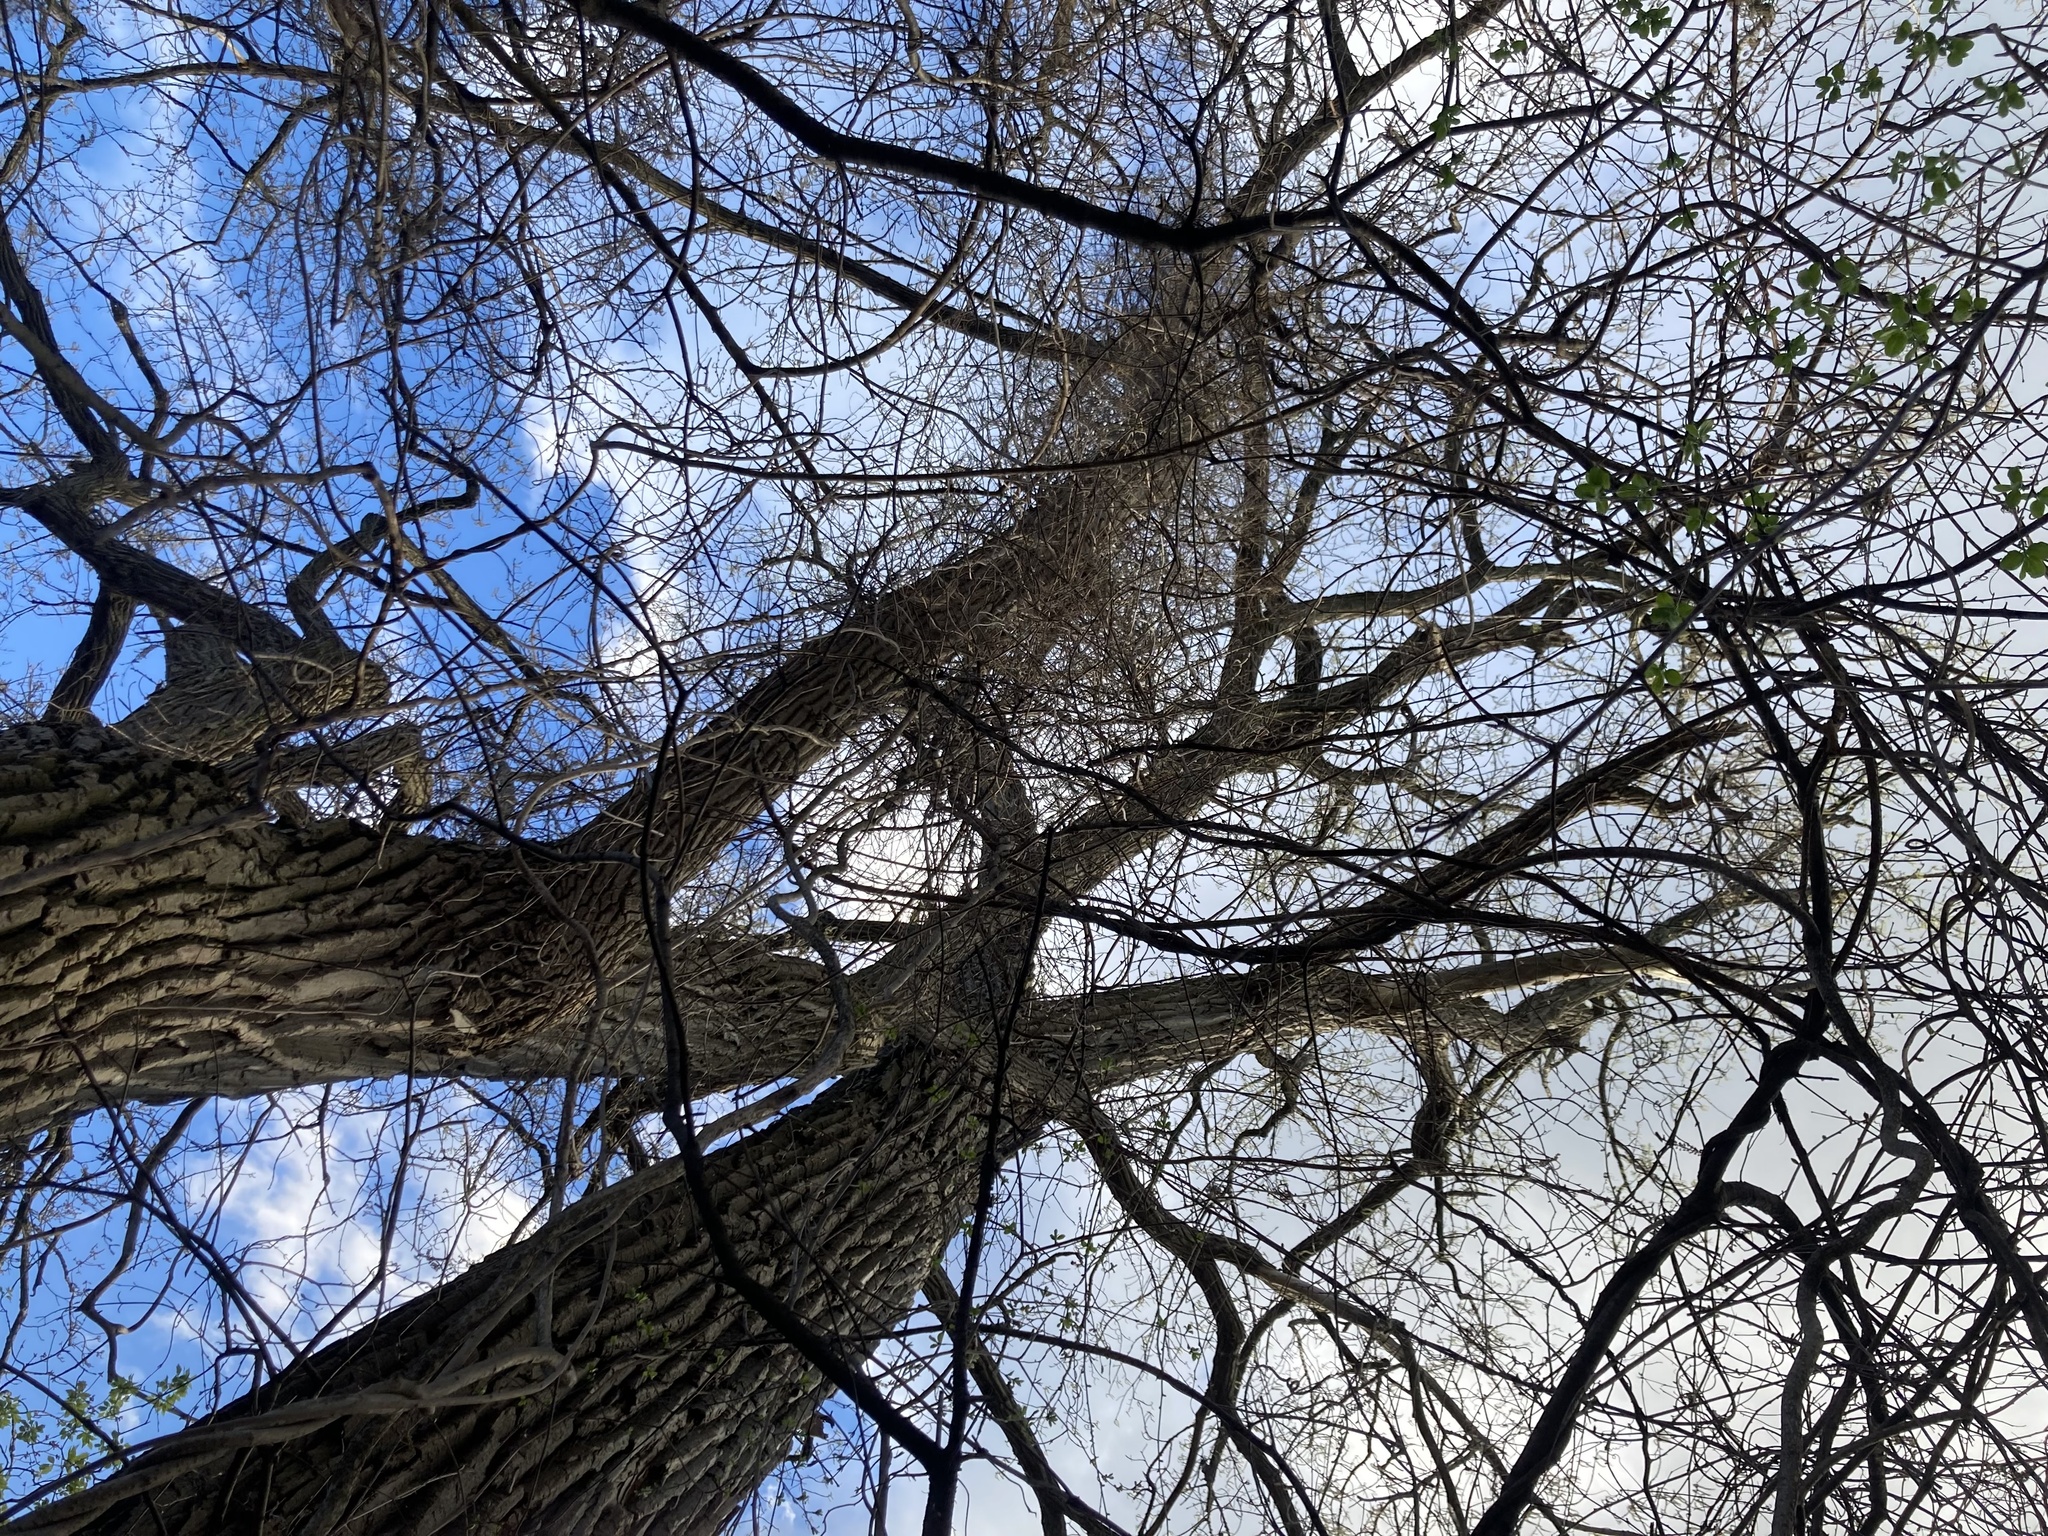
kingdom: Plantae
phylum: Tracheophyta
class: Magnoliopsida
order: Cornales
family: Nyssaceae
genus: Nyssa
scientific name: Nyssa sylvatica
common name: Black tupelo
